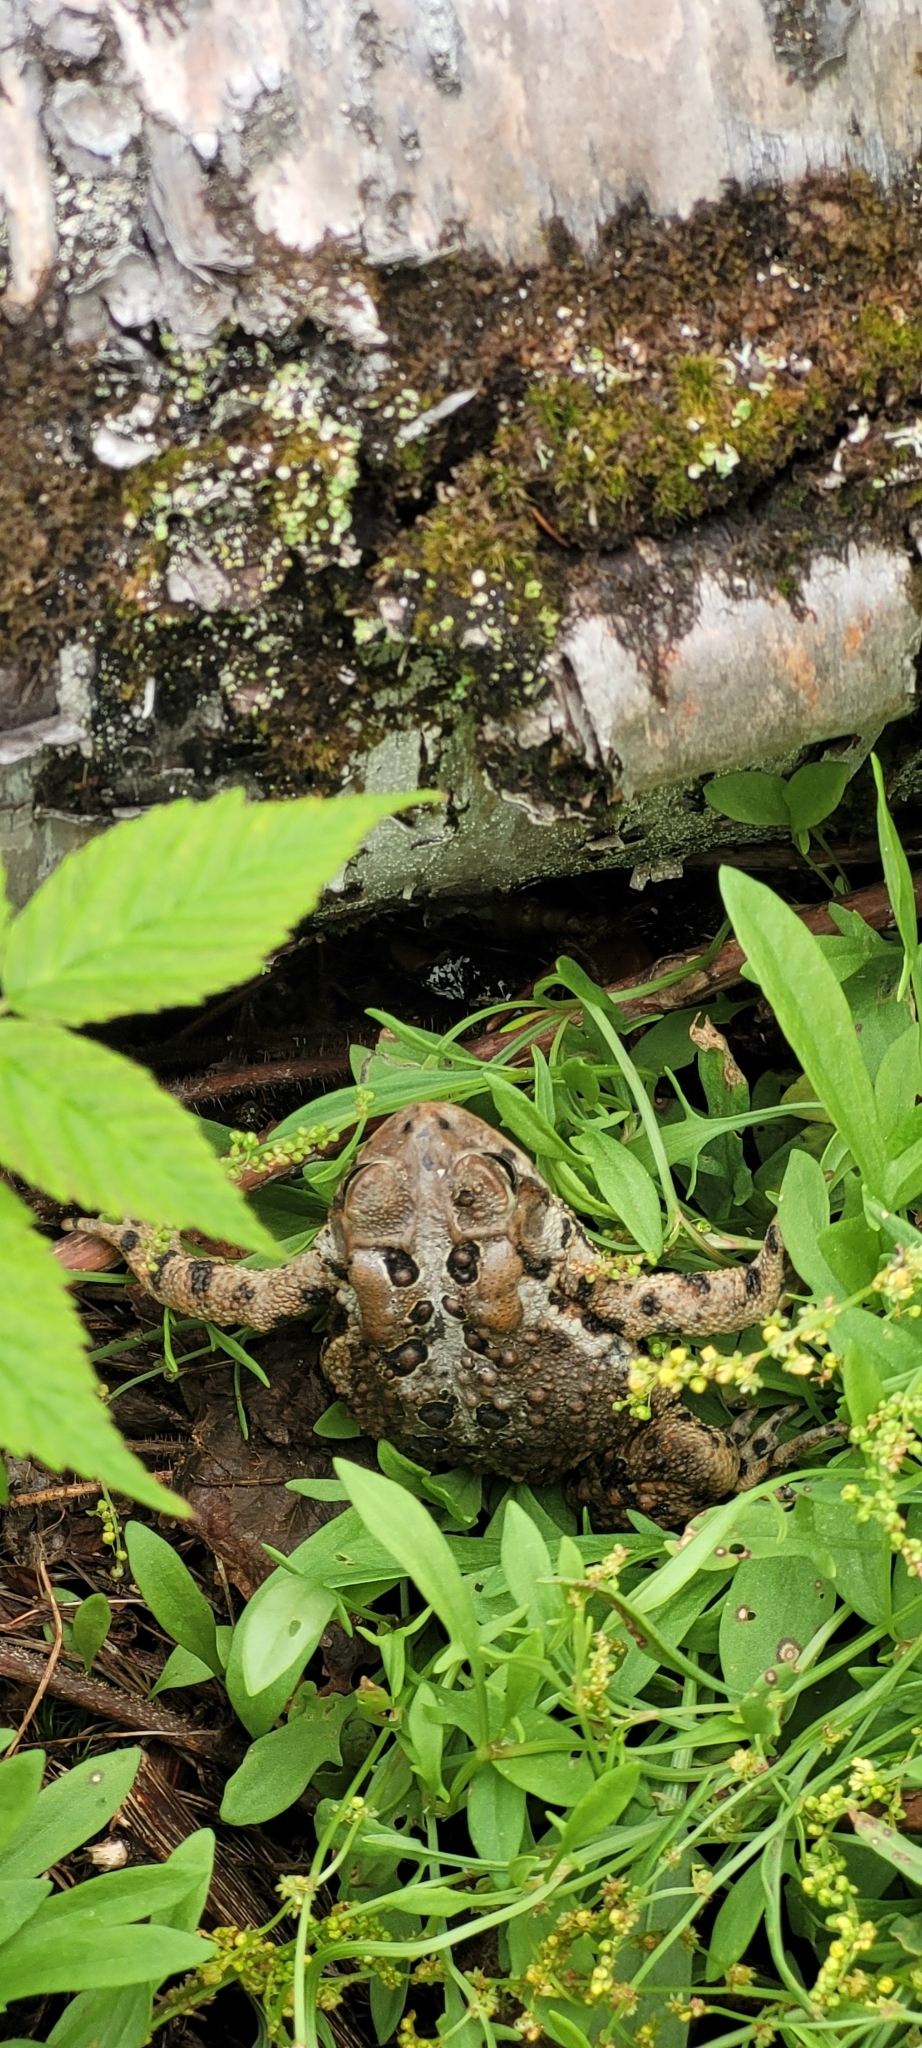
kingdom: Animalia
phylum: Chordata
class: Amphibia
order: Anura
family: Bufonidae
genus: Anaxyrus
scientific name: Anaxyrus americanus
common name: American toad
